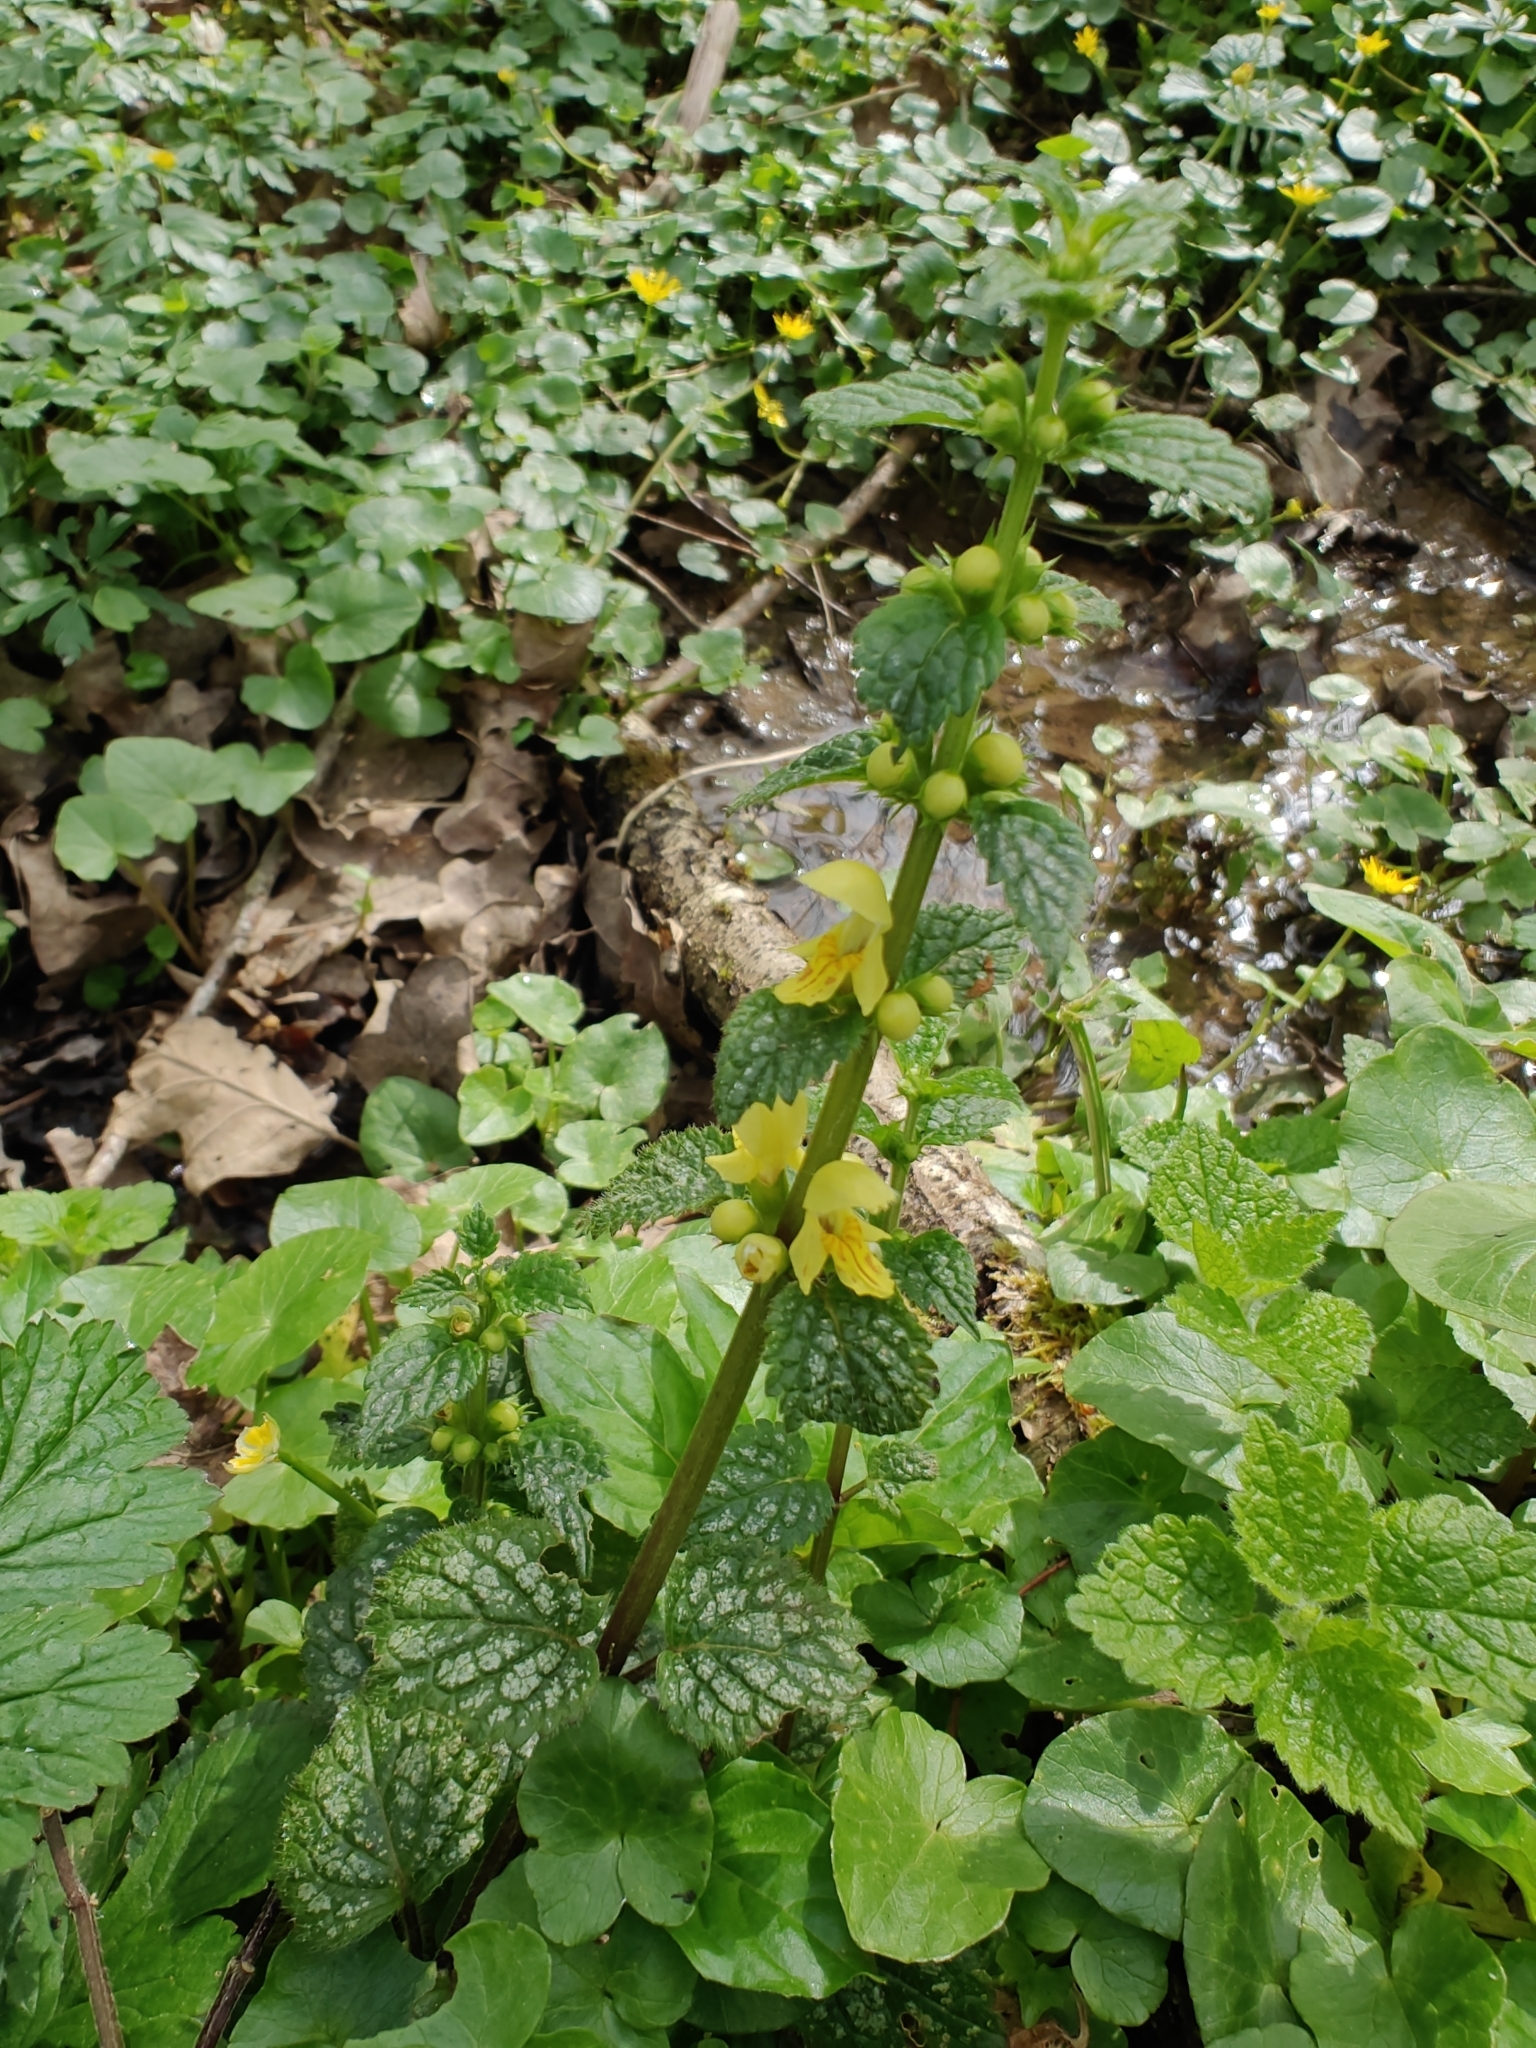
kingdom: Plantae
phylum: Tracheophyta
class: Magnoliopsida
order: Lamiales
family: Lamiaceae
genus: Lamium
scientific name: Lamium galeobdolon
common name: Yellow archangel
